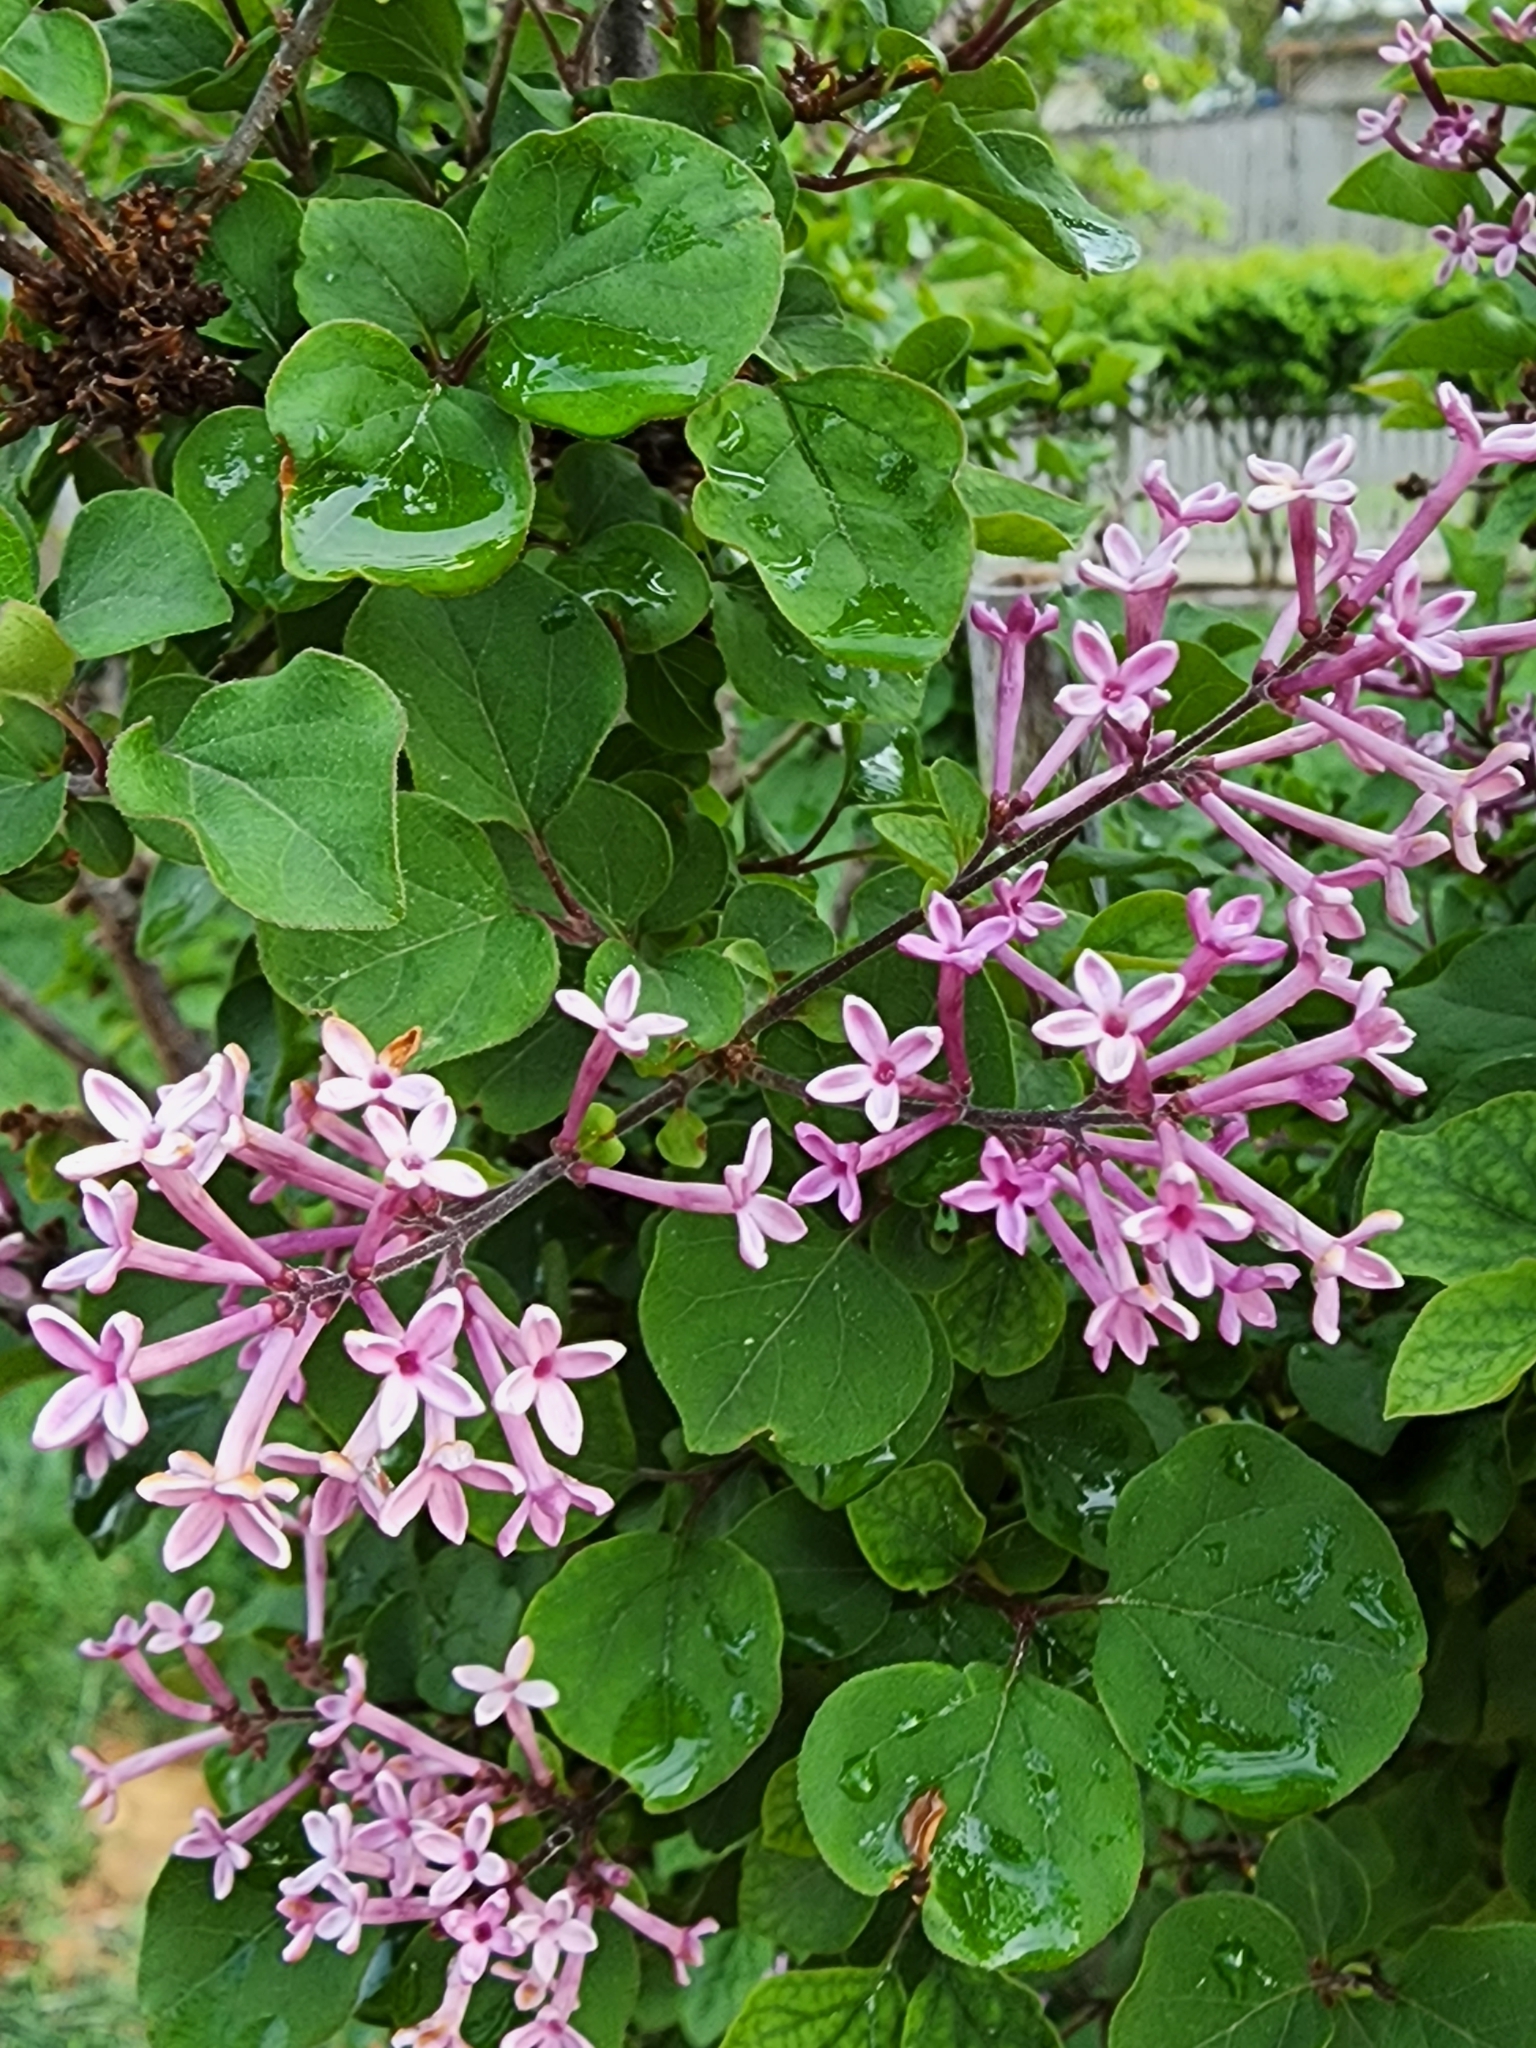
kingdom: Plantae
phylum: Tracheophyta
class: Magnoliopsida
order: Lamiales
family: Oleaceae
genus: Syringa
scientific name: Syringa vulgaris
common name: Common lilac
